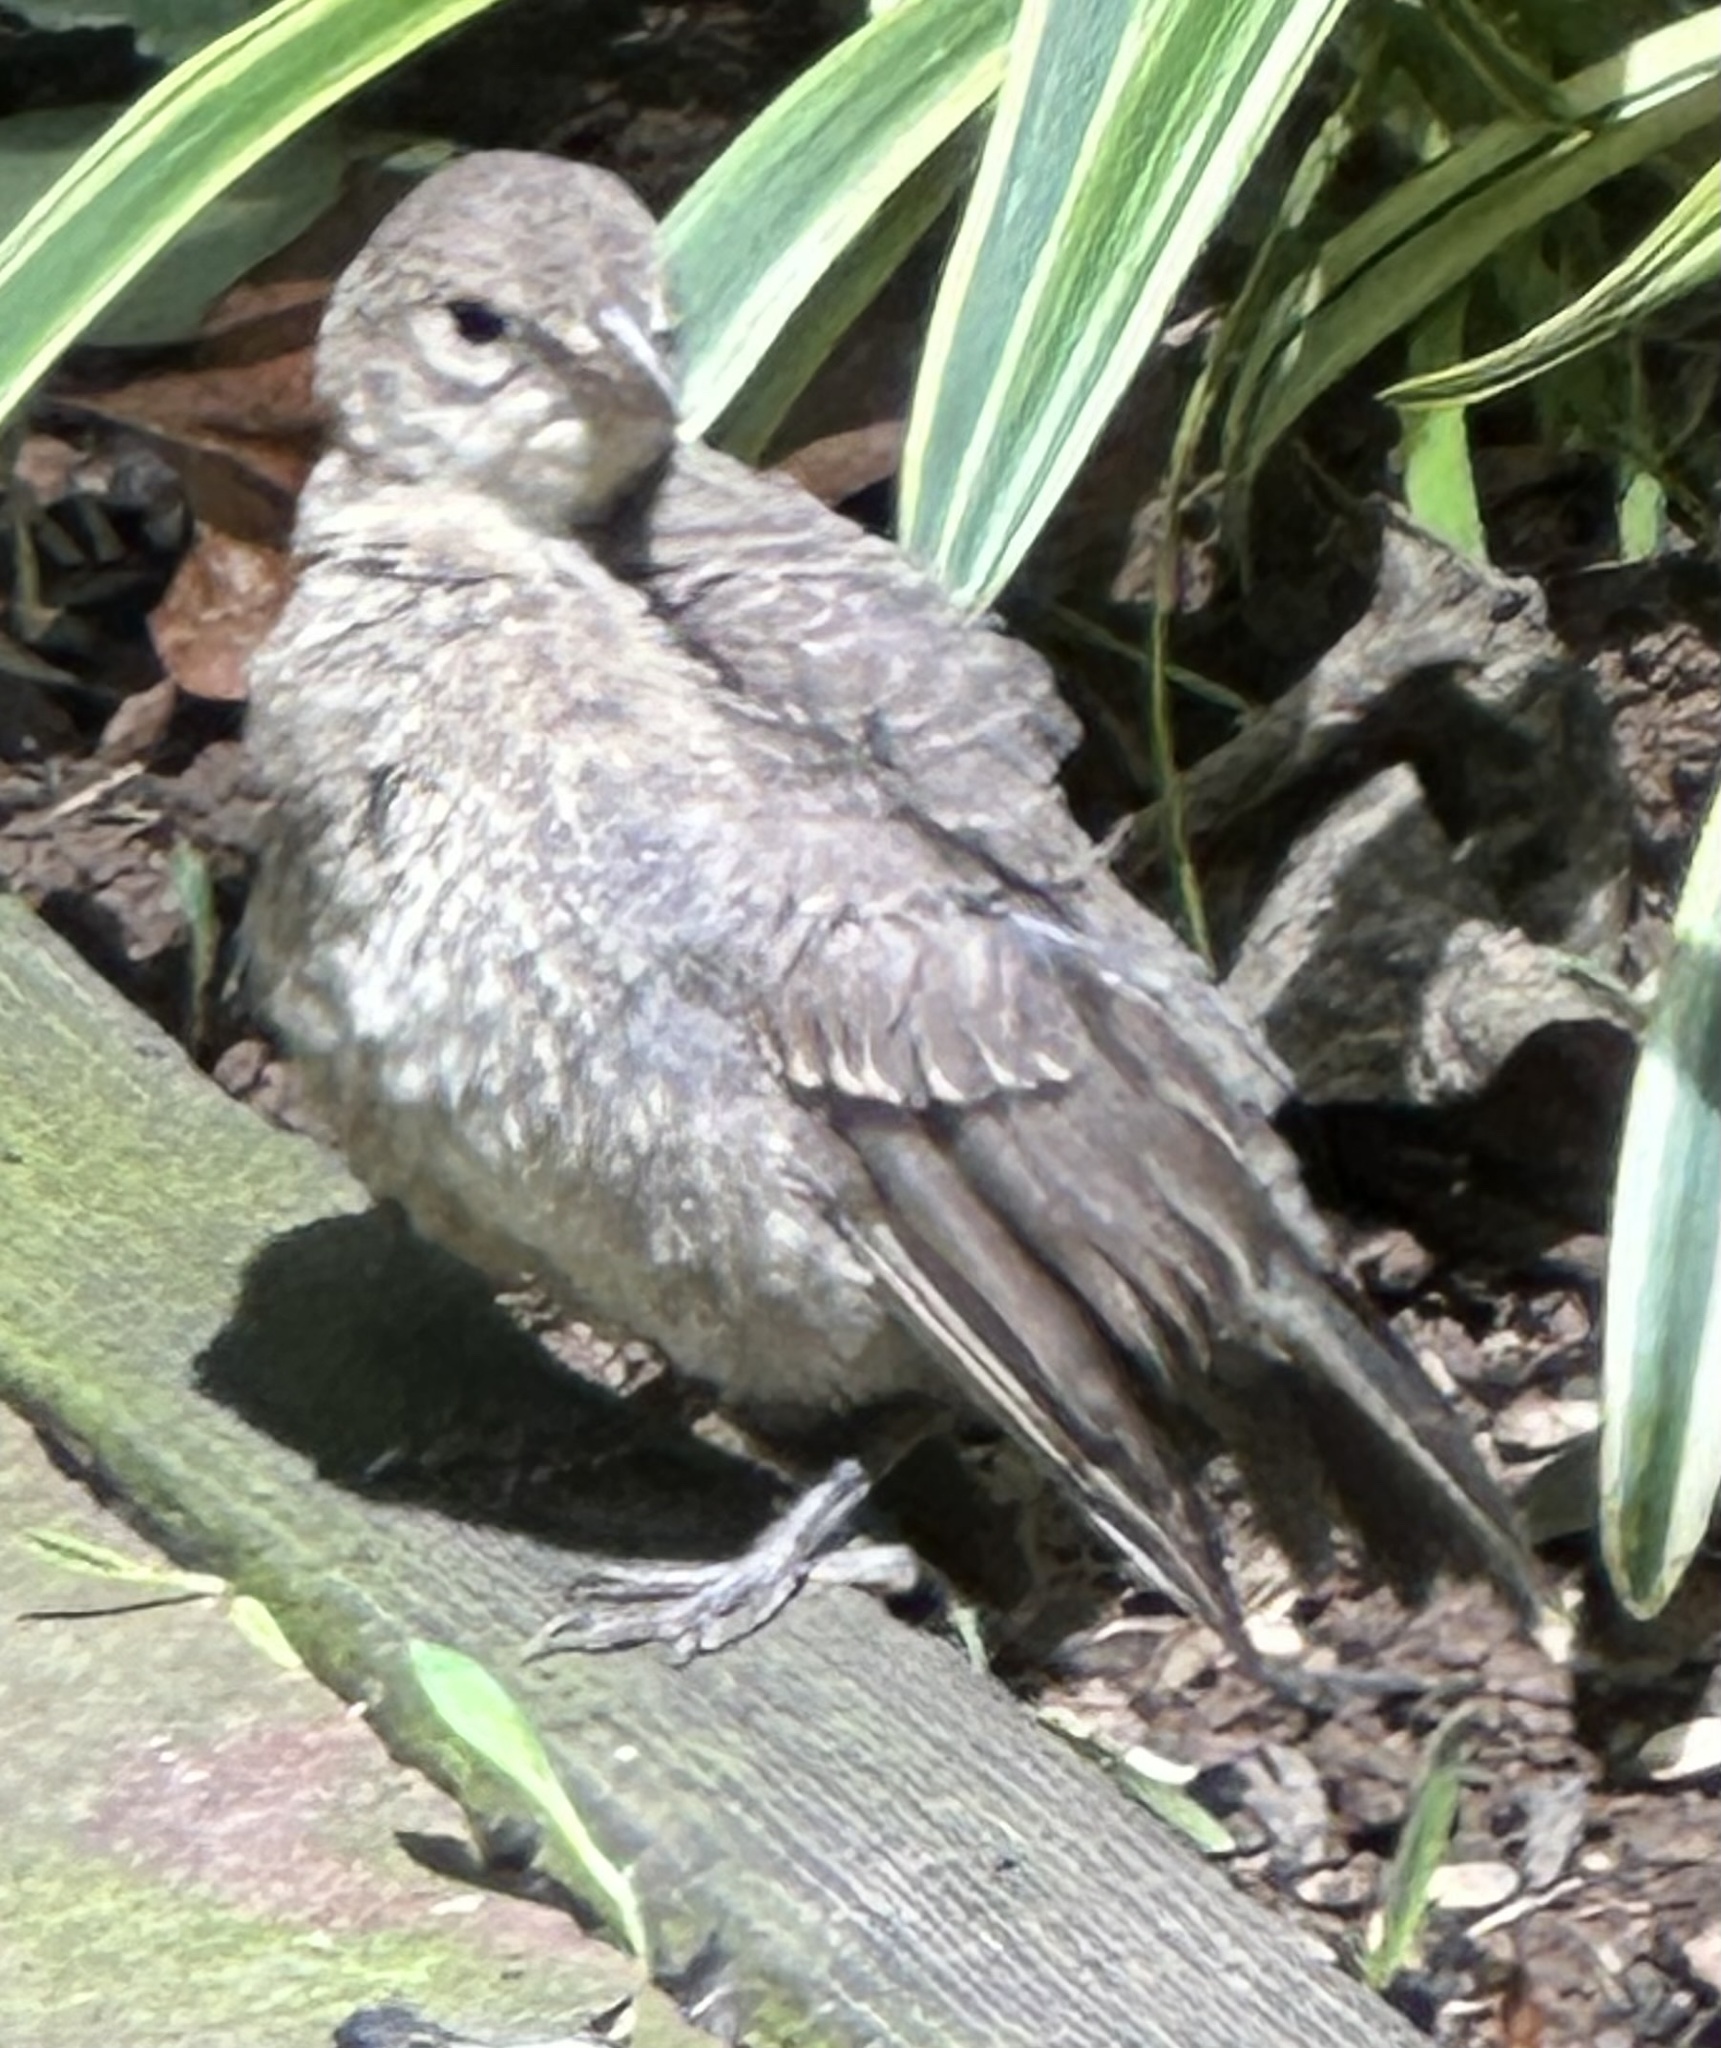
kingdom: Animalia
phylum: Chordata
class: Aves
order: Passeriformes
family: Icteridae
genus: Molothrus
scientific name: Molothrus ater
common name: Brown-headed cowbird
